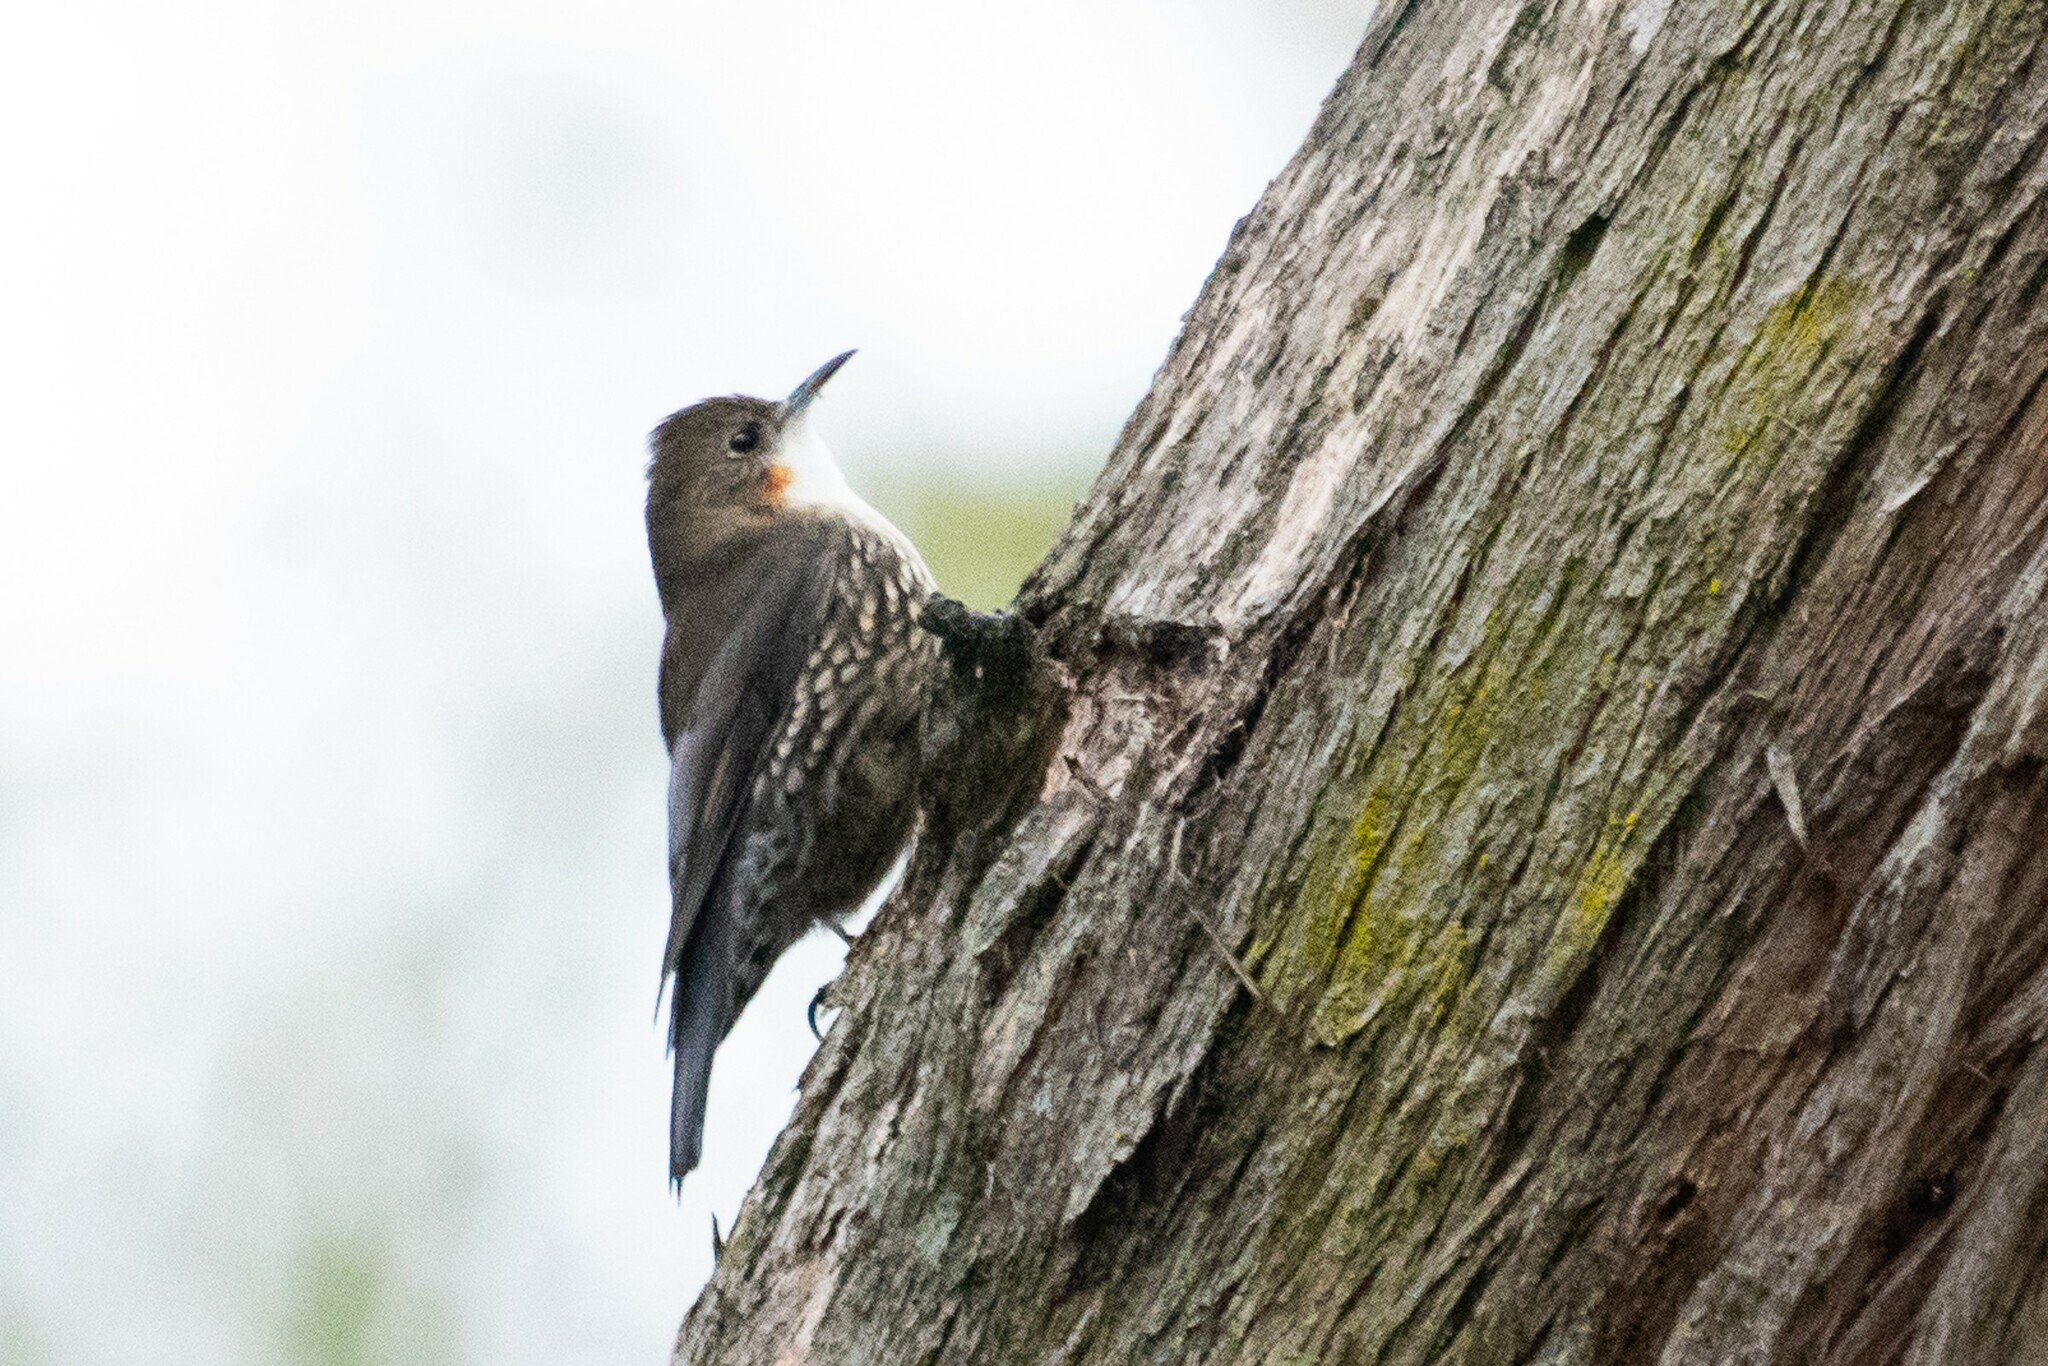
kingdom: Animalia
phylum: Chordata
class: Aves
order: Passeriformes
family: Climacteridae
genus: Cormobates
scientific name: Cormobates leucophaea
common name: White-throated treecreeper
